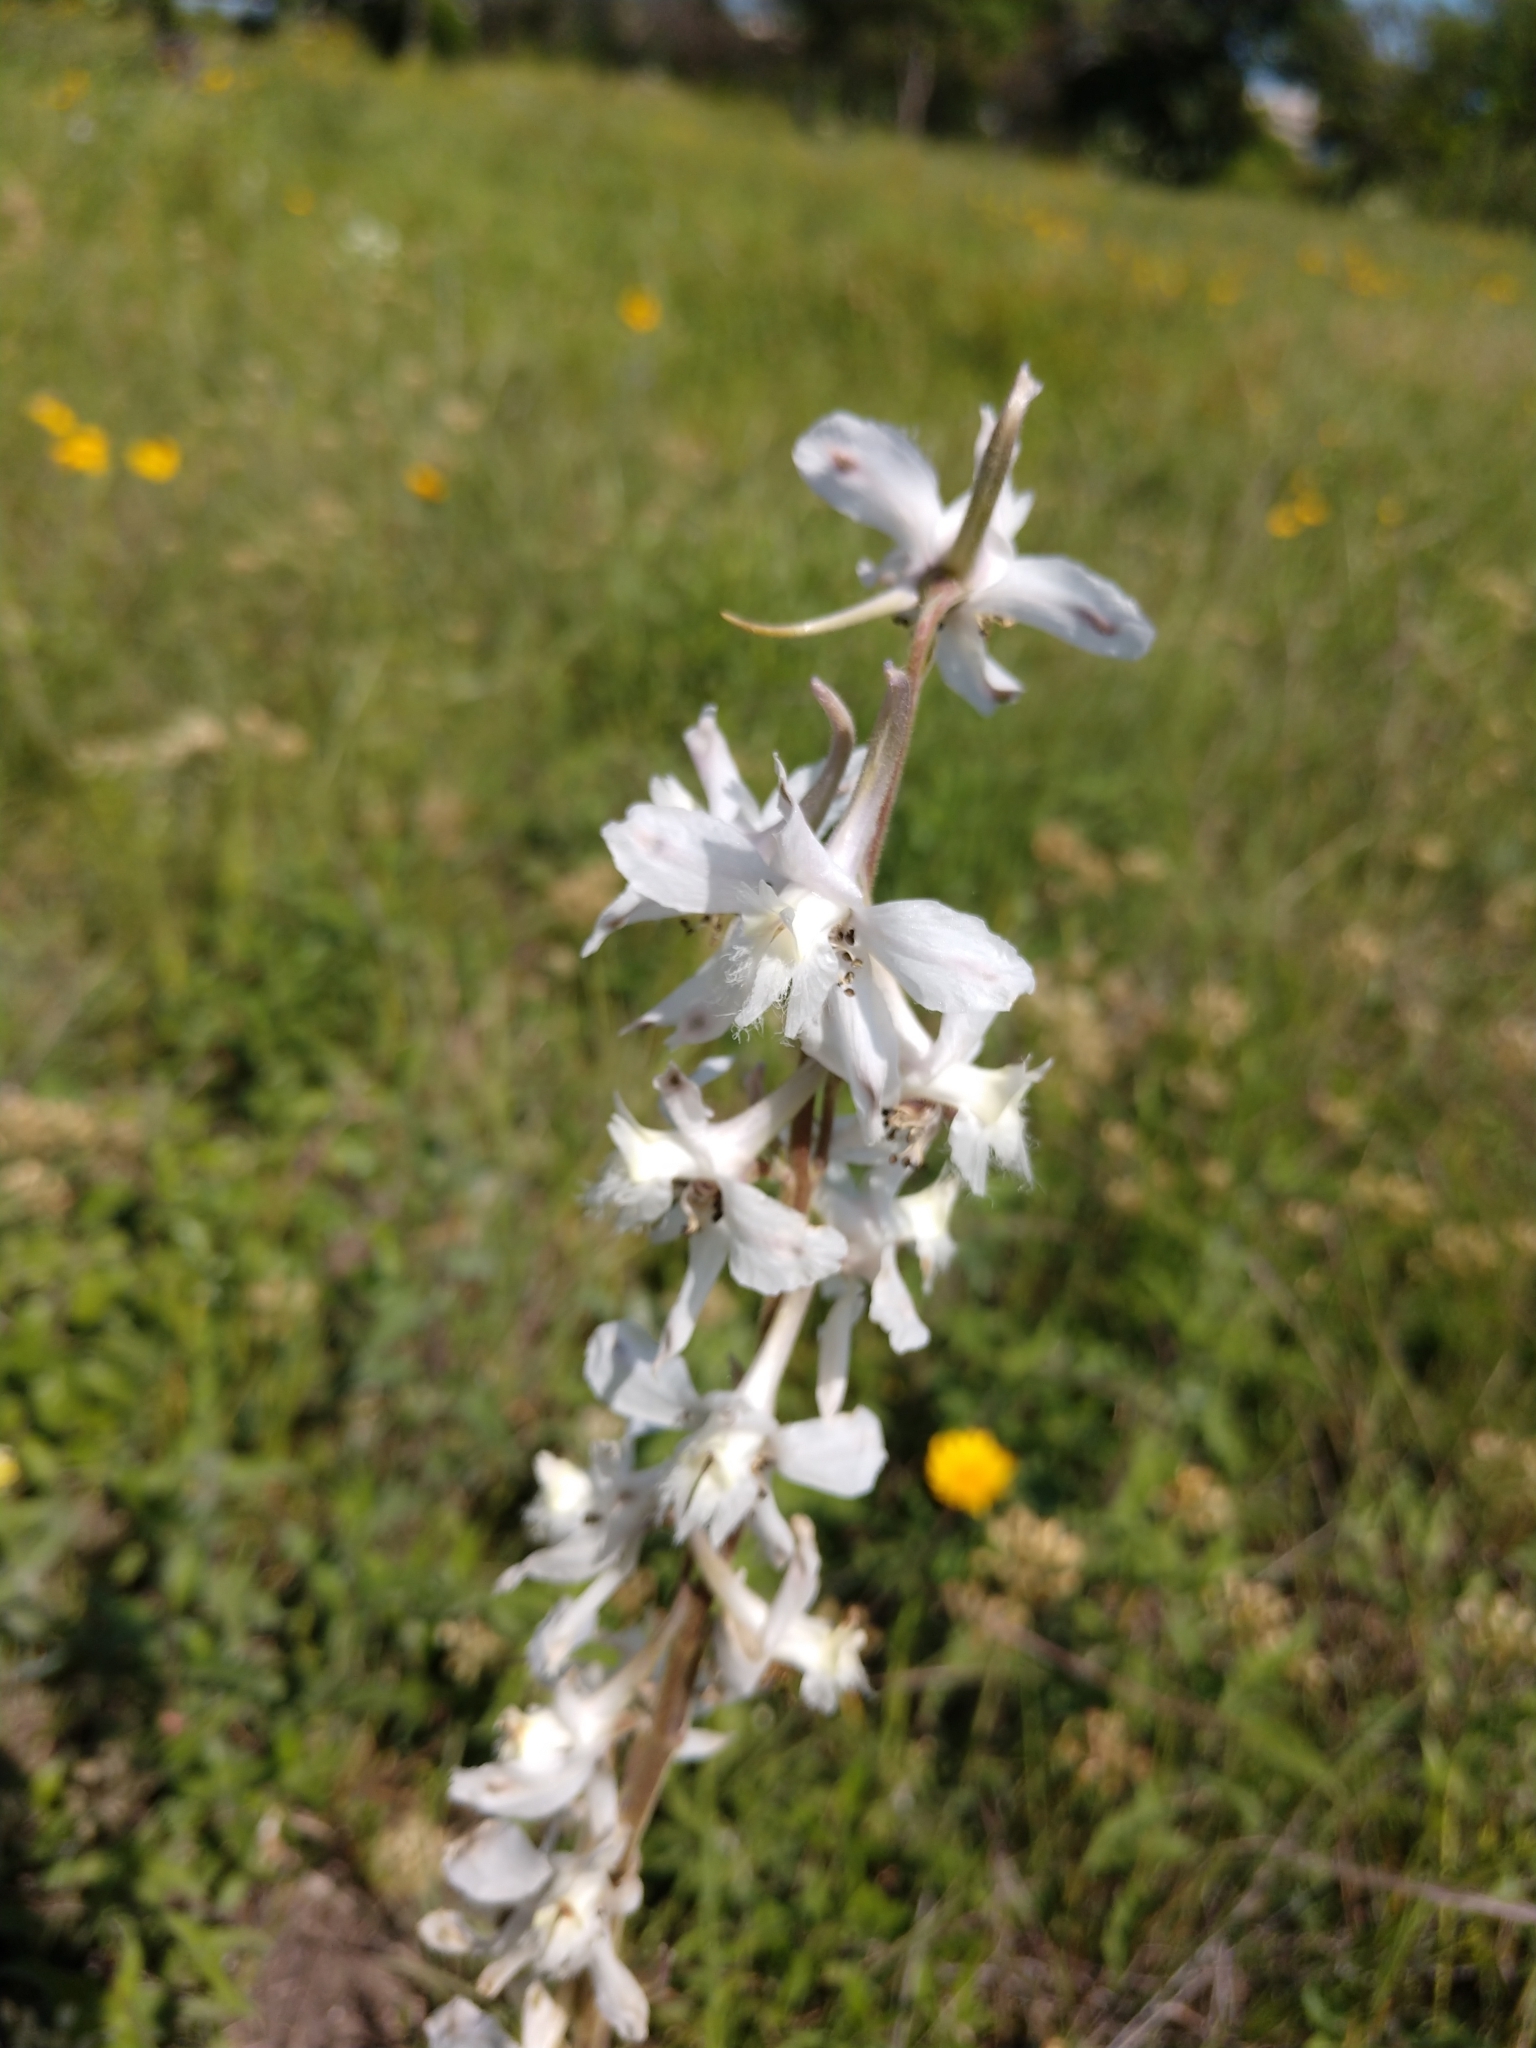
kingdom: Plantae
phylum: Tracheophyta
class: Magnoliopsida
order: Ranunculales
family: Ranunculaceae
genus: Delphinium
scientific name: Delphinium carolinianum
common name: Carolina larkspur
